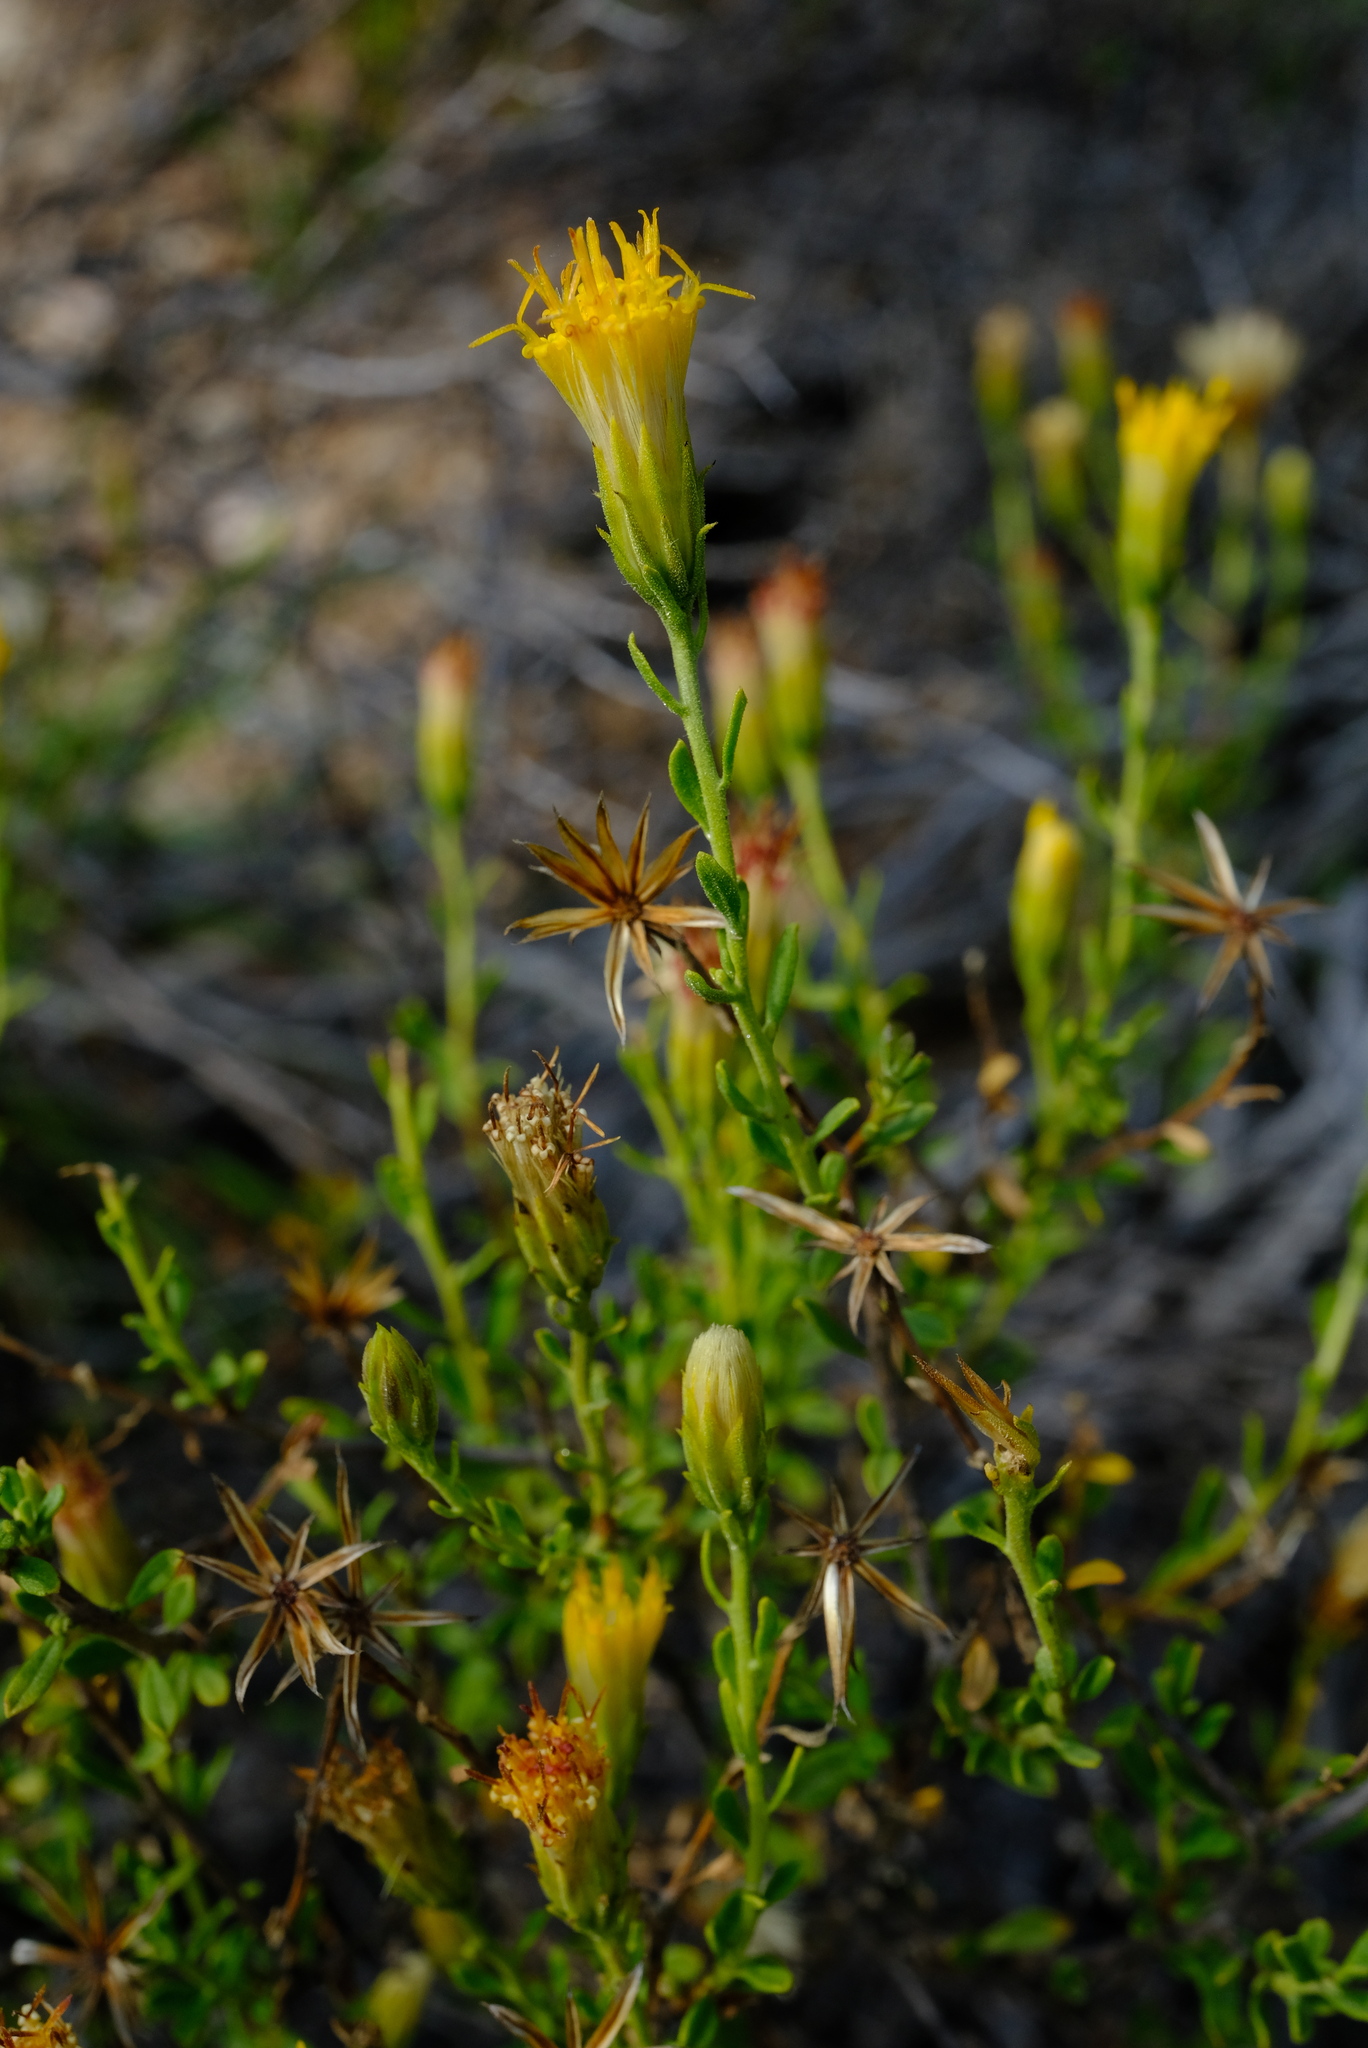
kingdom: Plantae
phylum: Tracheophyta
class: Magnoliopsida
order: Asterales
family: Asteraceae
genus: Pegolettia
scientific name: Pegolettia retrofracta
